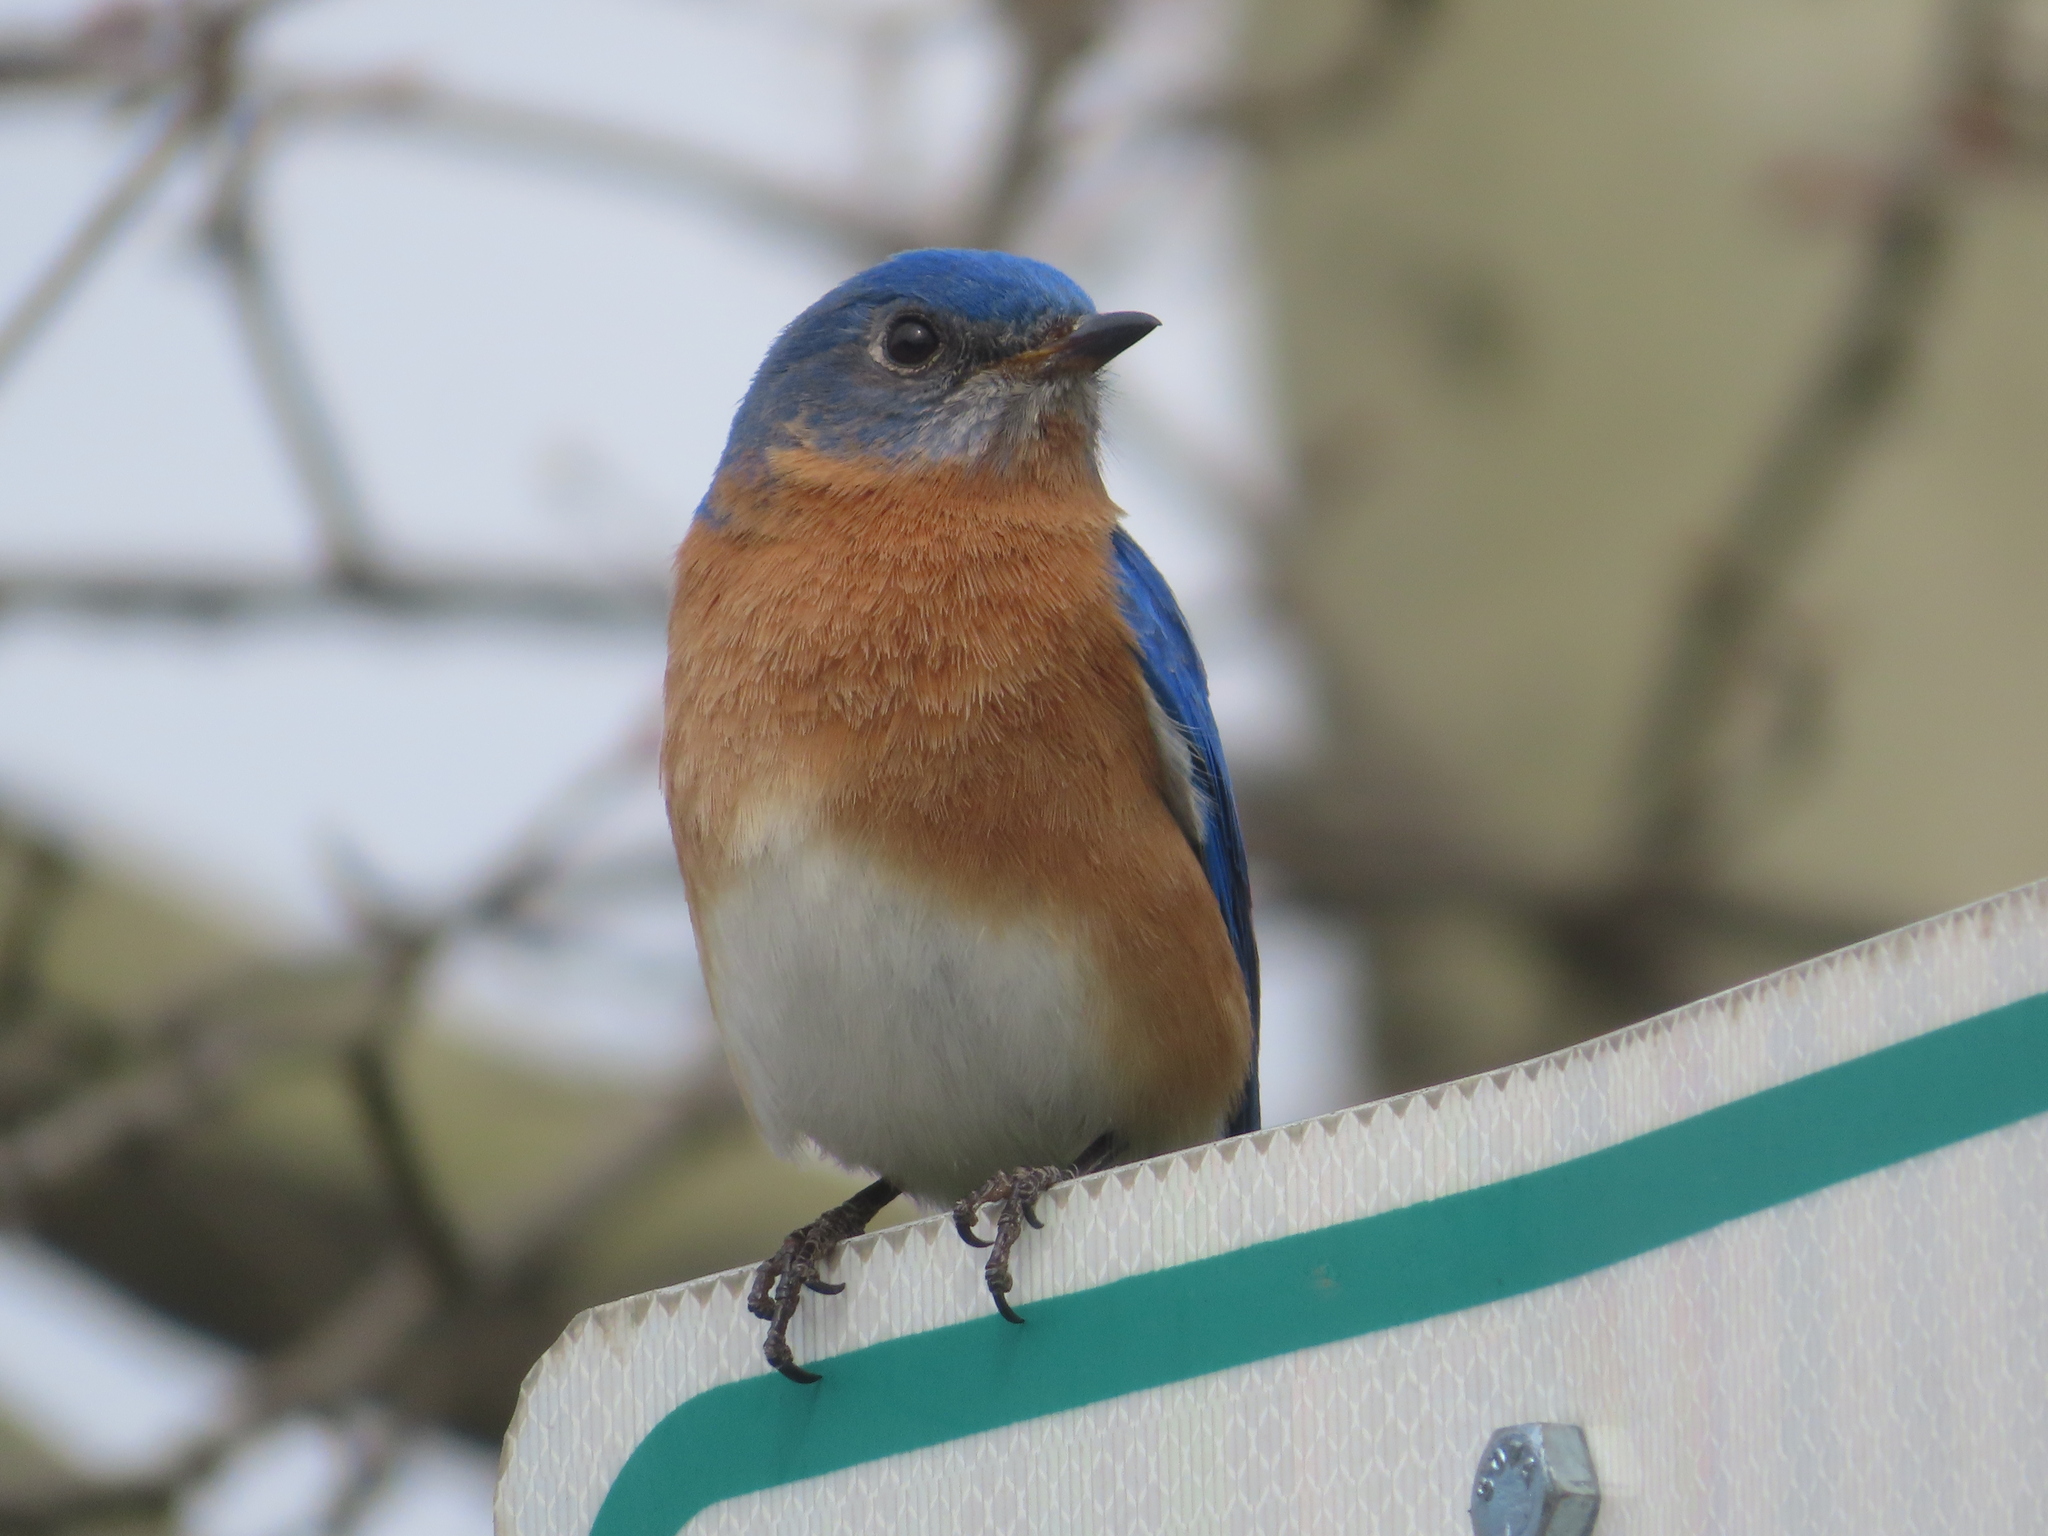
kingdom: Animalia
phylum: Chordata
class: Aves
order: Passeriformes
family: Turdidae
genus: Sialia
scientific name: Sialia sialis
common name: Eastern bluebird
